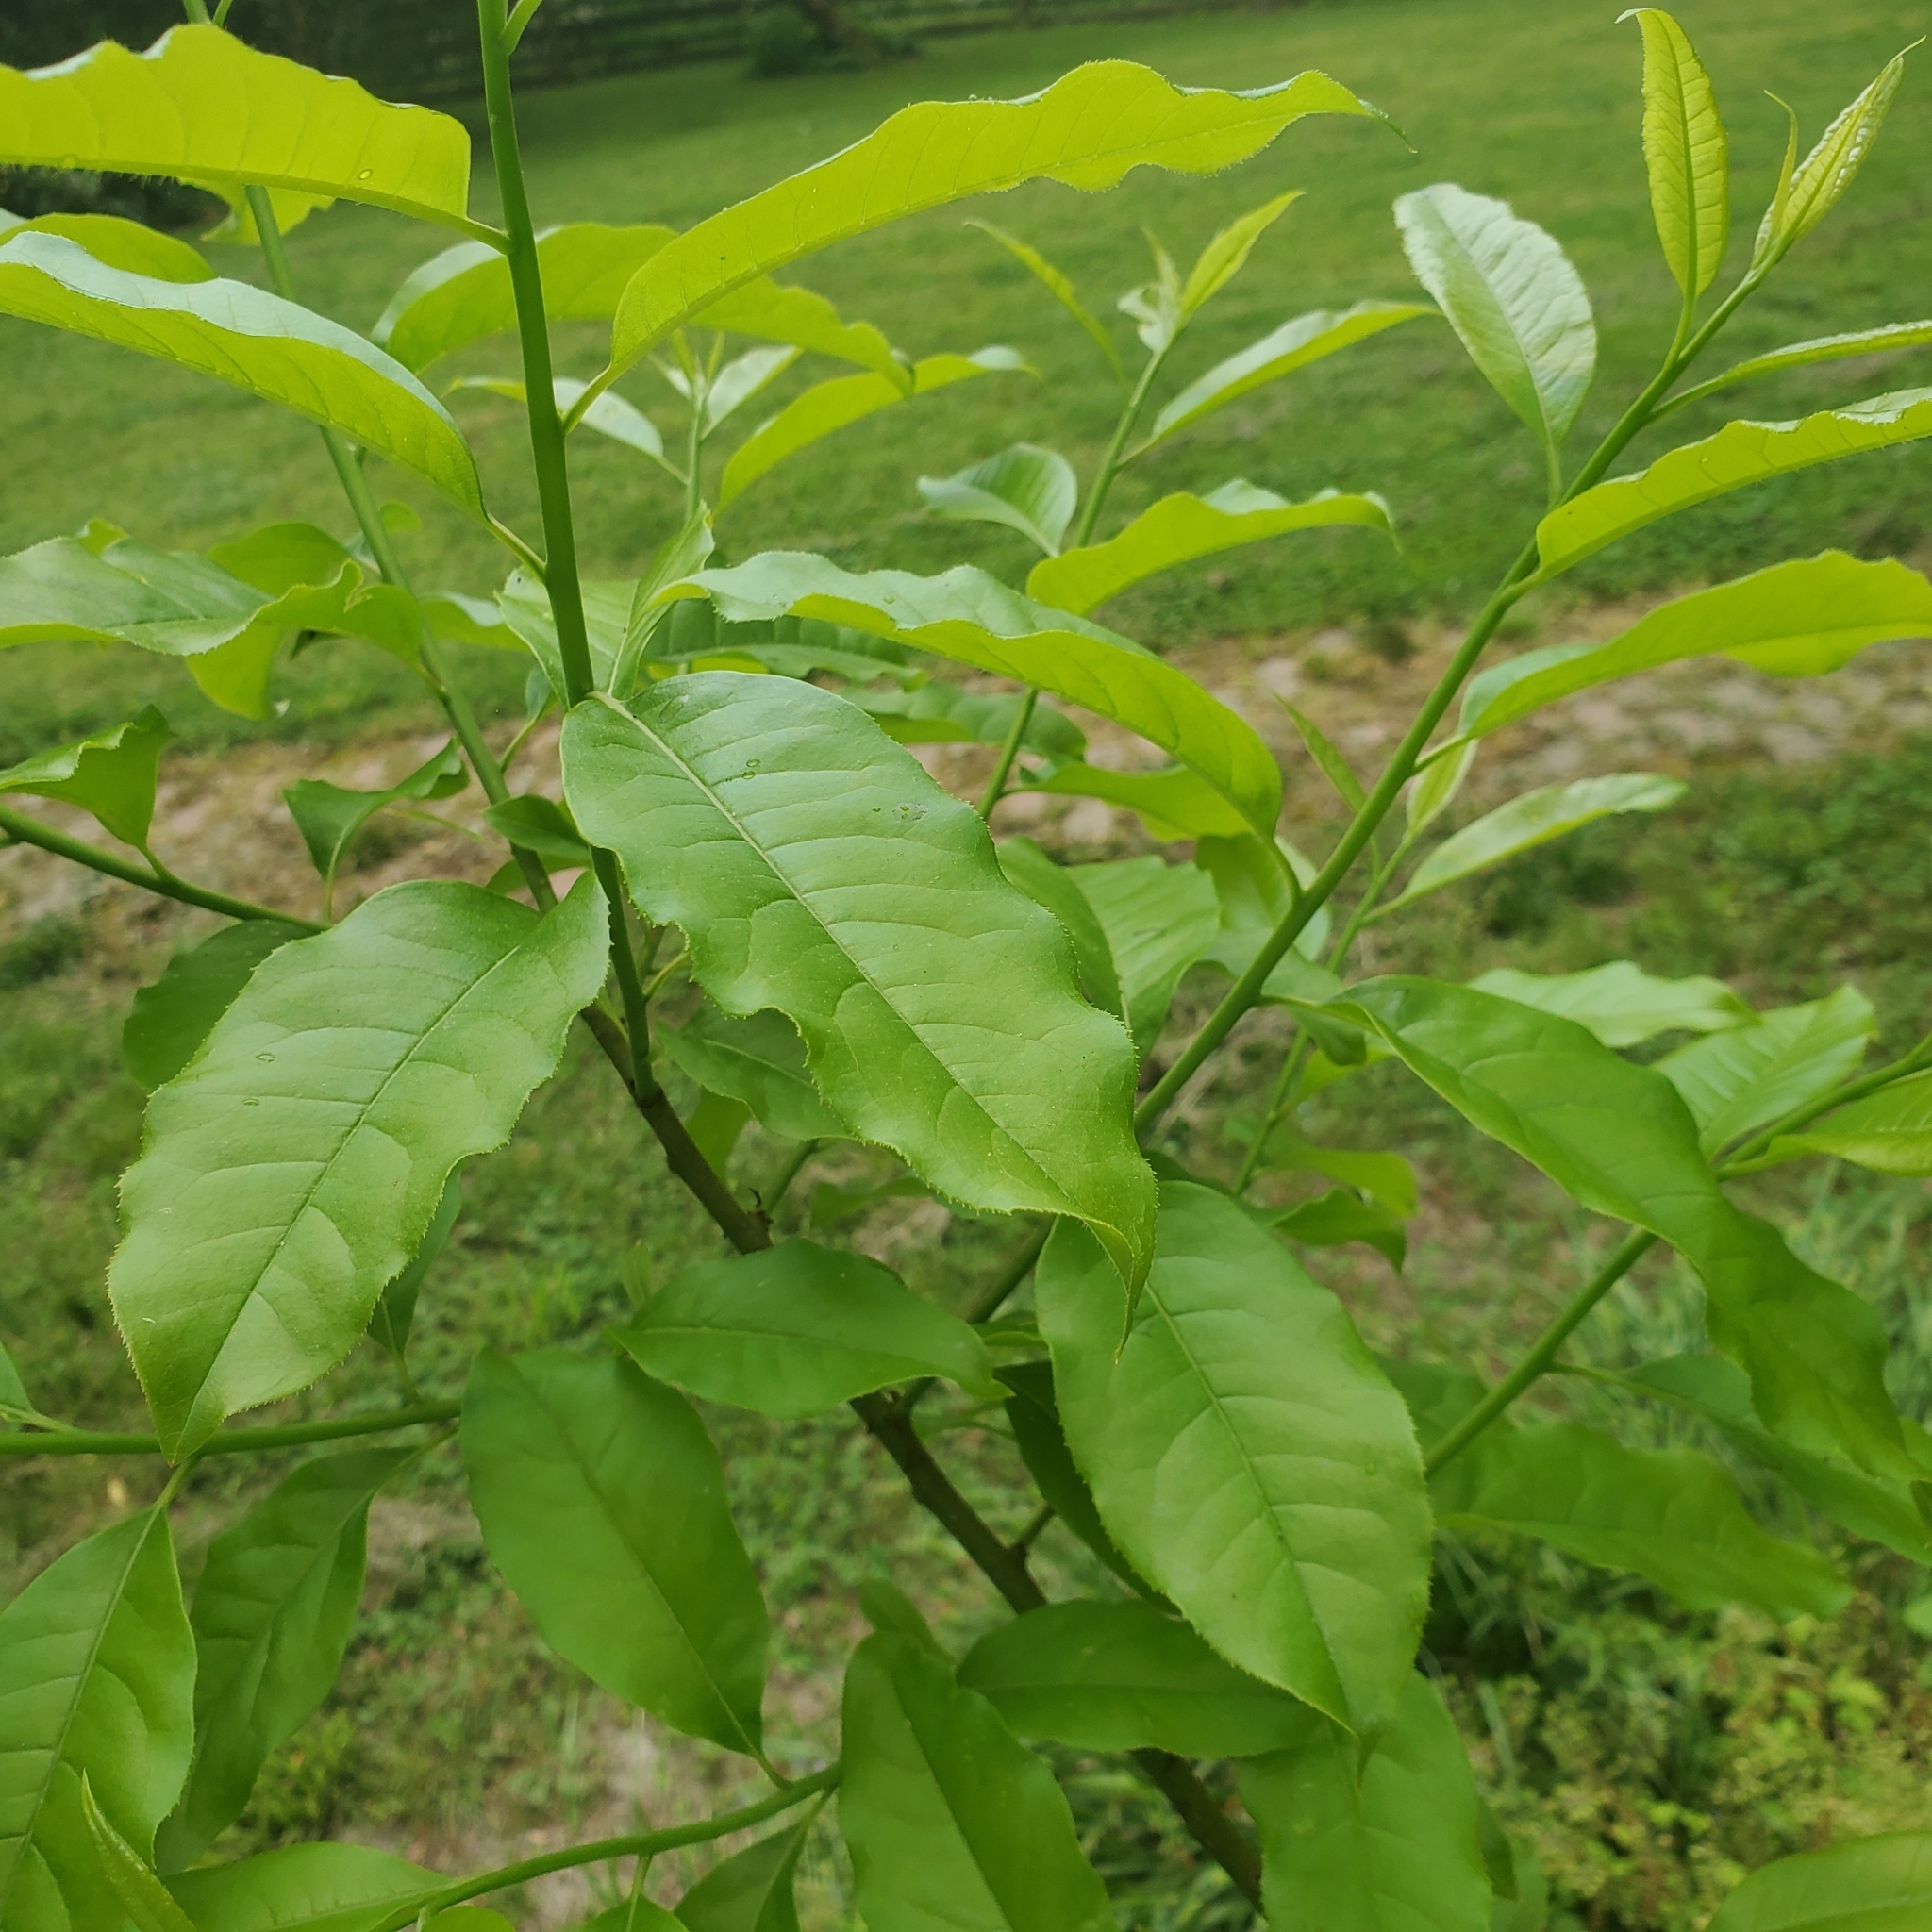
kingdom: Plantae
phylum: Tracheophyta
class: Magnoliopsida
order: Ericales
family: Ericaceae
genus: Oxydendrum
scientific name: Oxydendrum arboreum
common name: Sourwood
